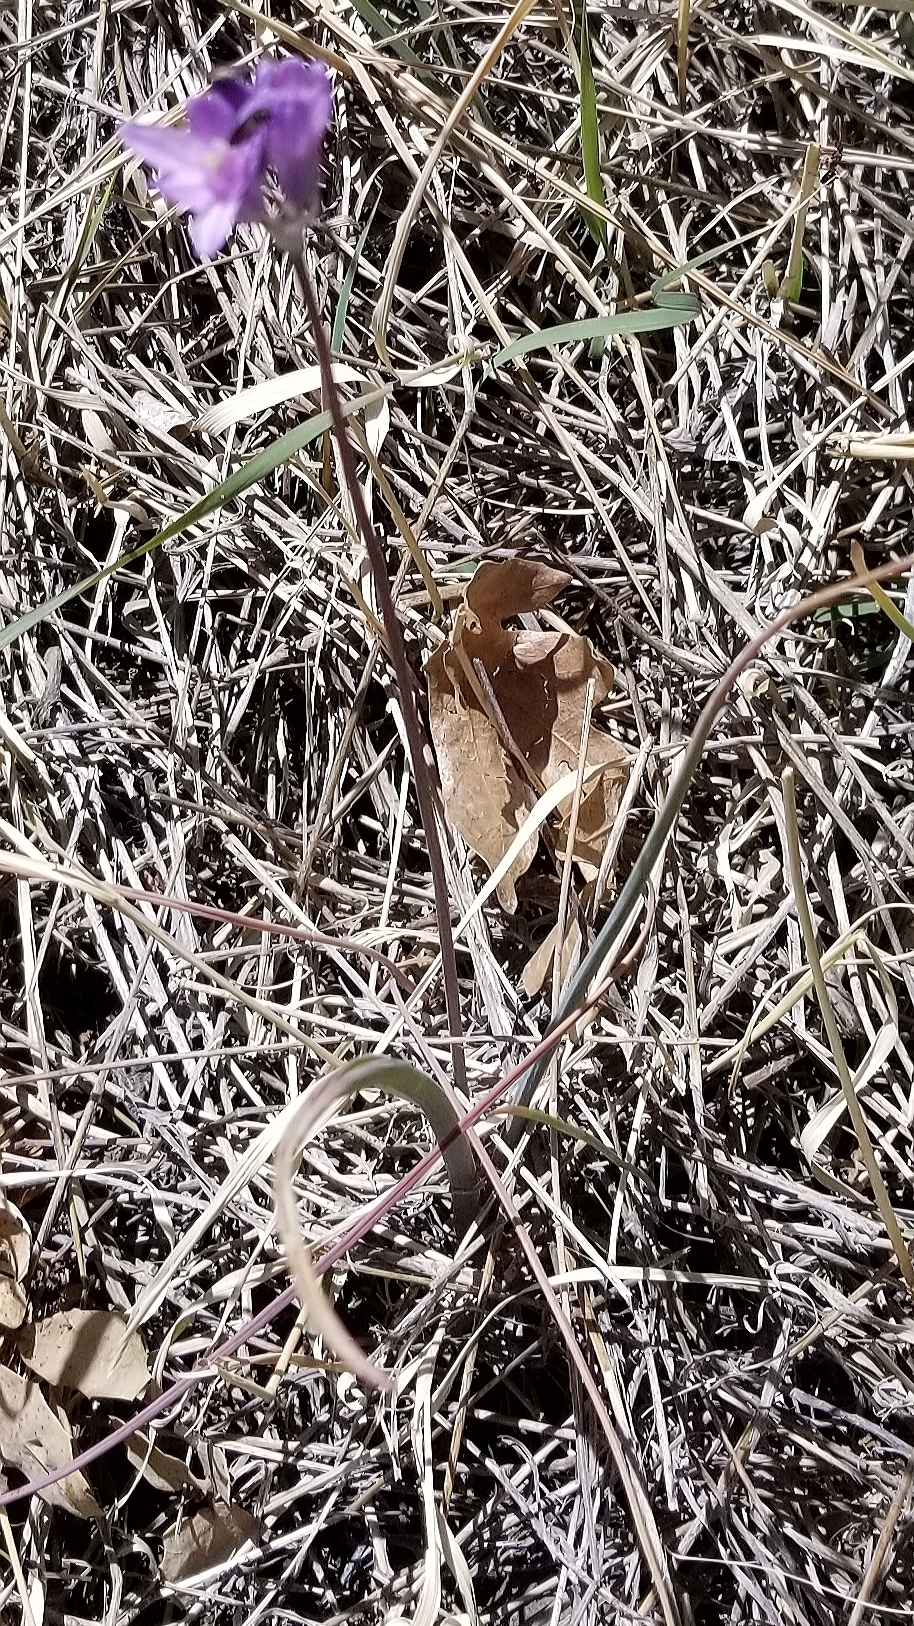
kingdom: Plantae
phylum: Tracheophyta
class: Liliopsida
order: Asparagales
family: Asparagaceae
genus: Dipterostemon
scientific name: Dipterostemon capitatus
